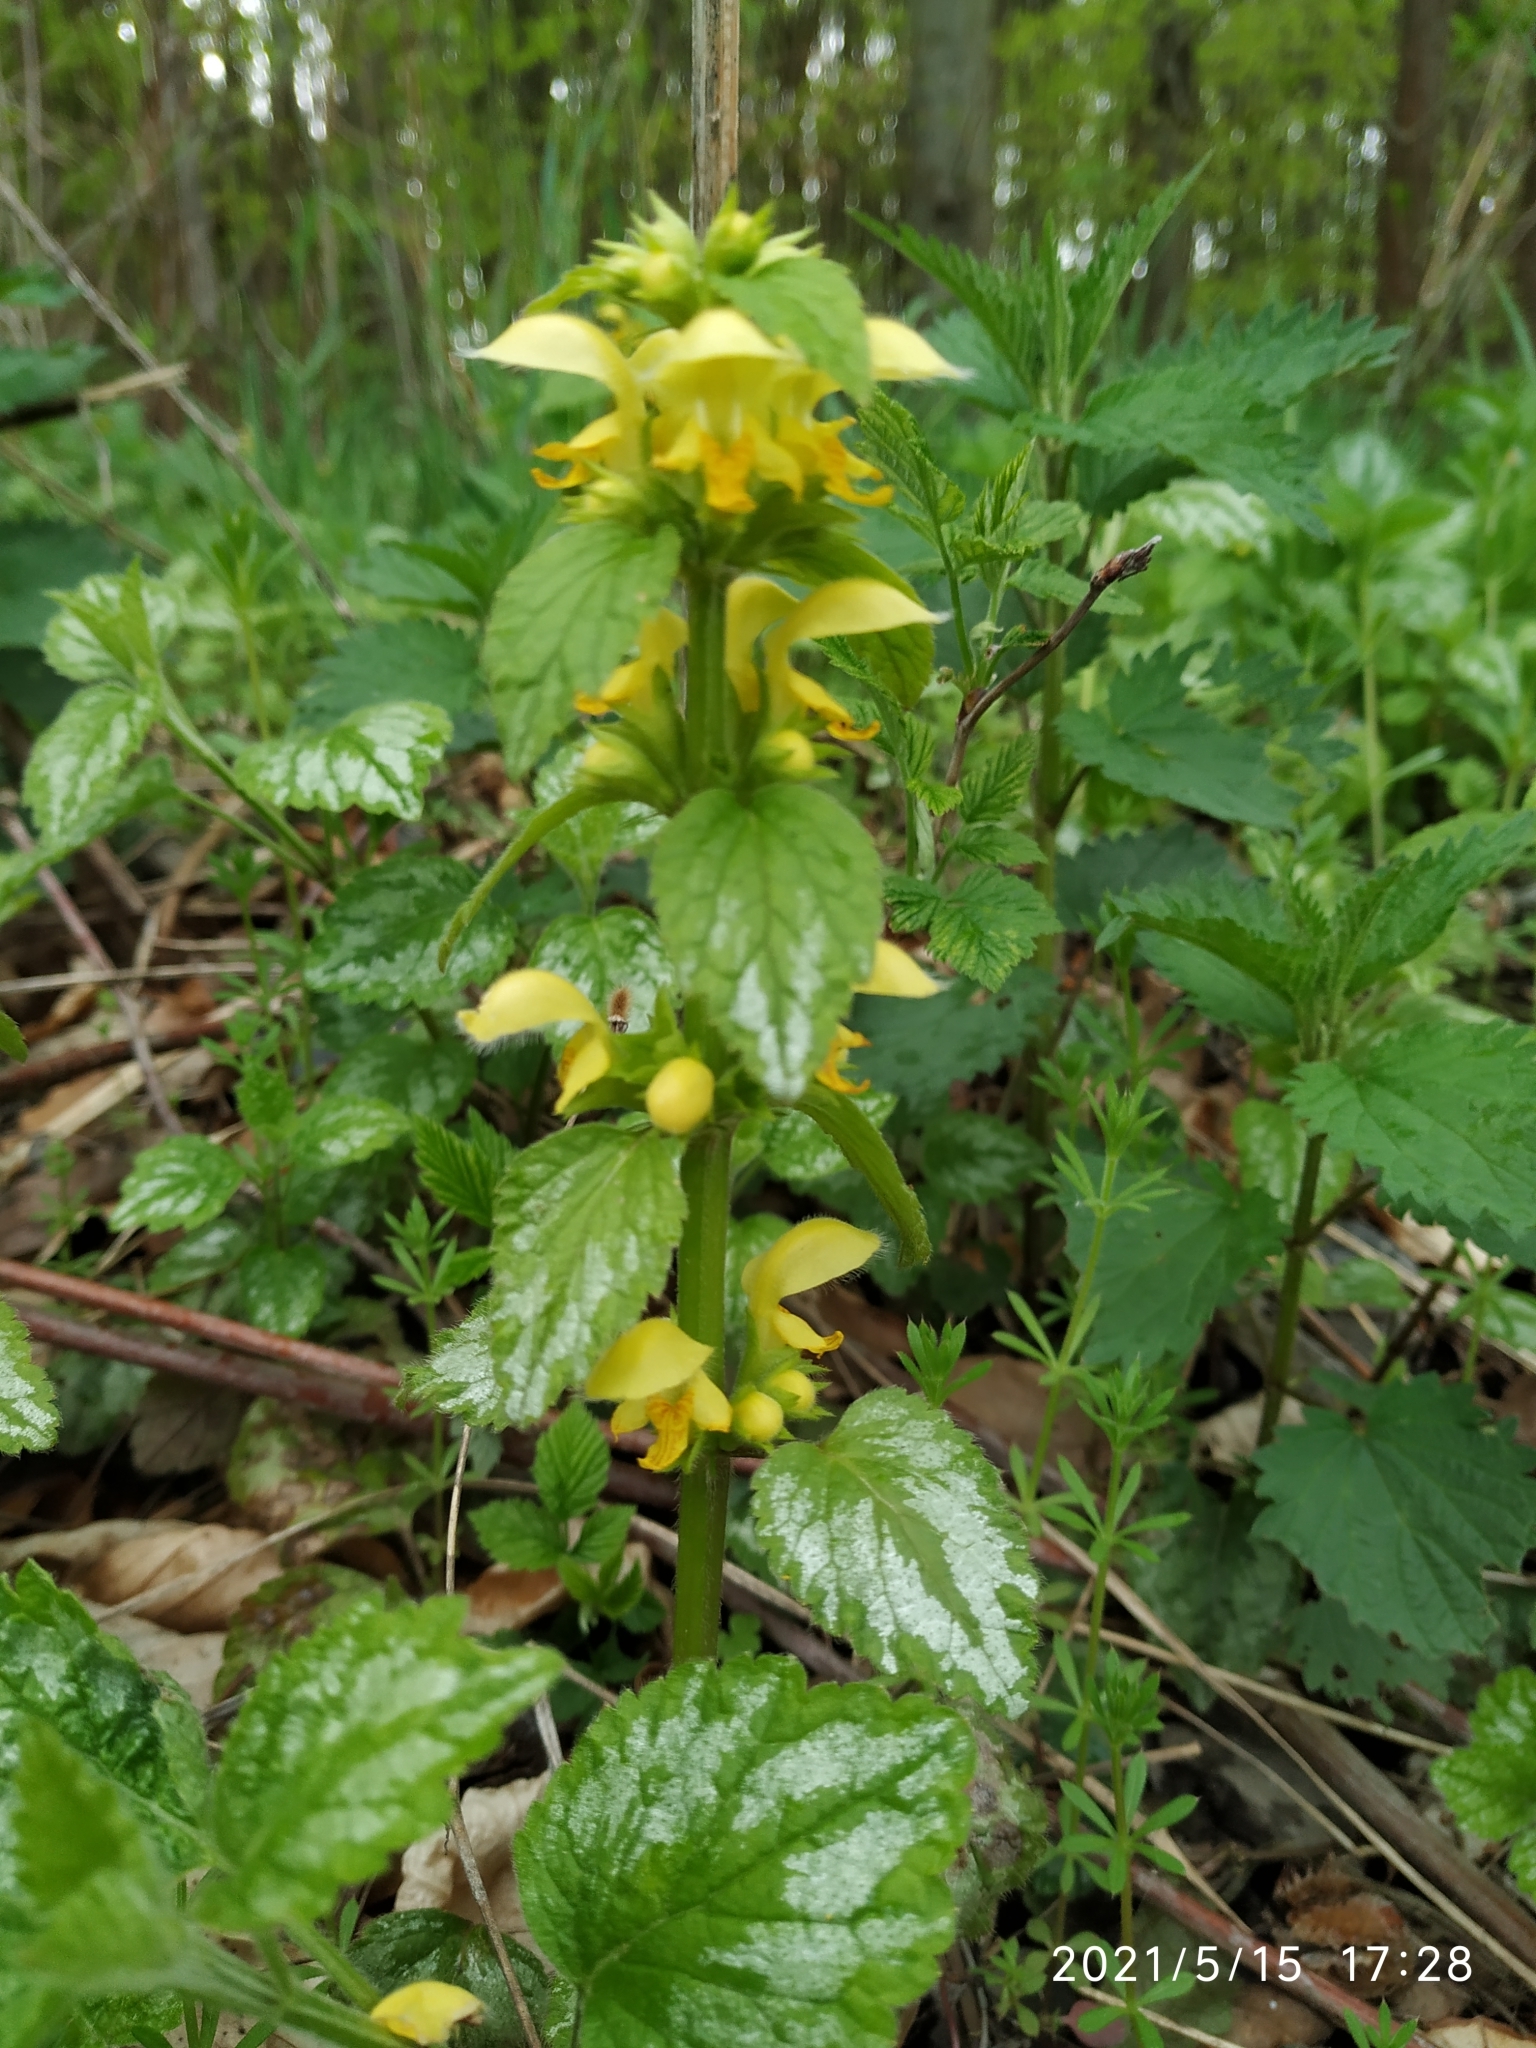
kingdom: Plantae
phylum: Tracheophyta
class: Magnoliopsida
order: Lamiales
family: Lamiaceae
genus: Lamium
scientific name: Lamium galeobdolon
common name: Yellow archangel
